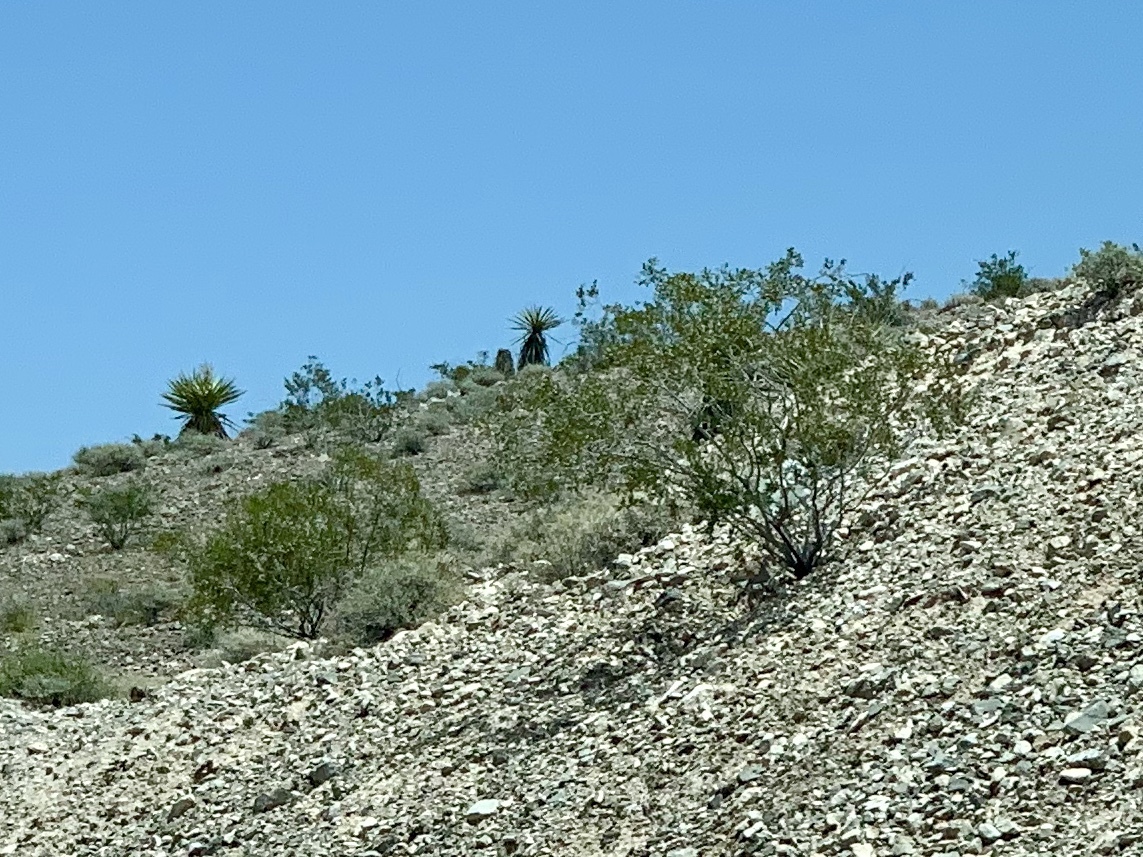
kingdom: Plantae
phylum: Tracheophyta
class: Magnoliopsida
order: Zygophyllales
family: Zygophyllaceae
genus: Larrea
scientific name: Larrea tridentata
